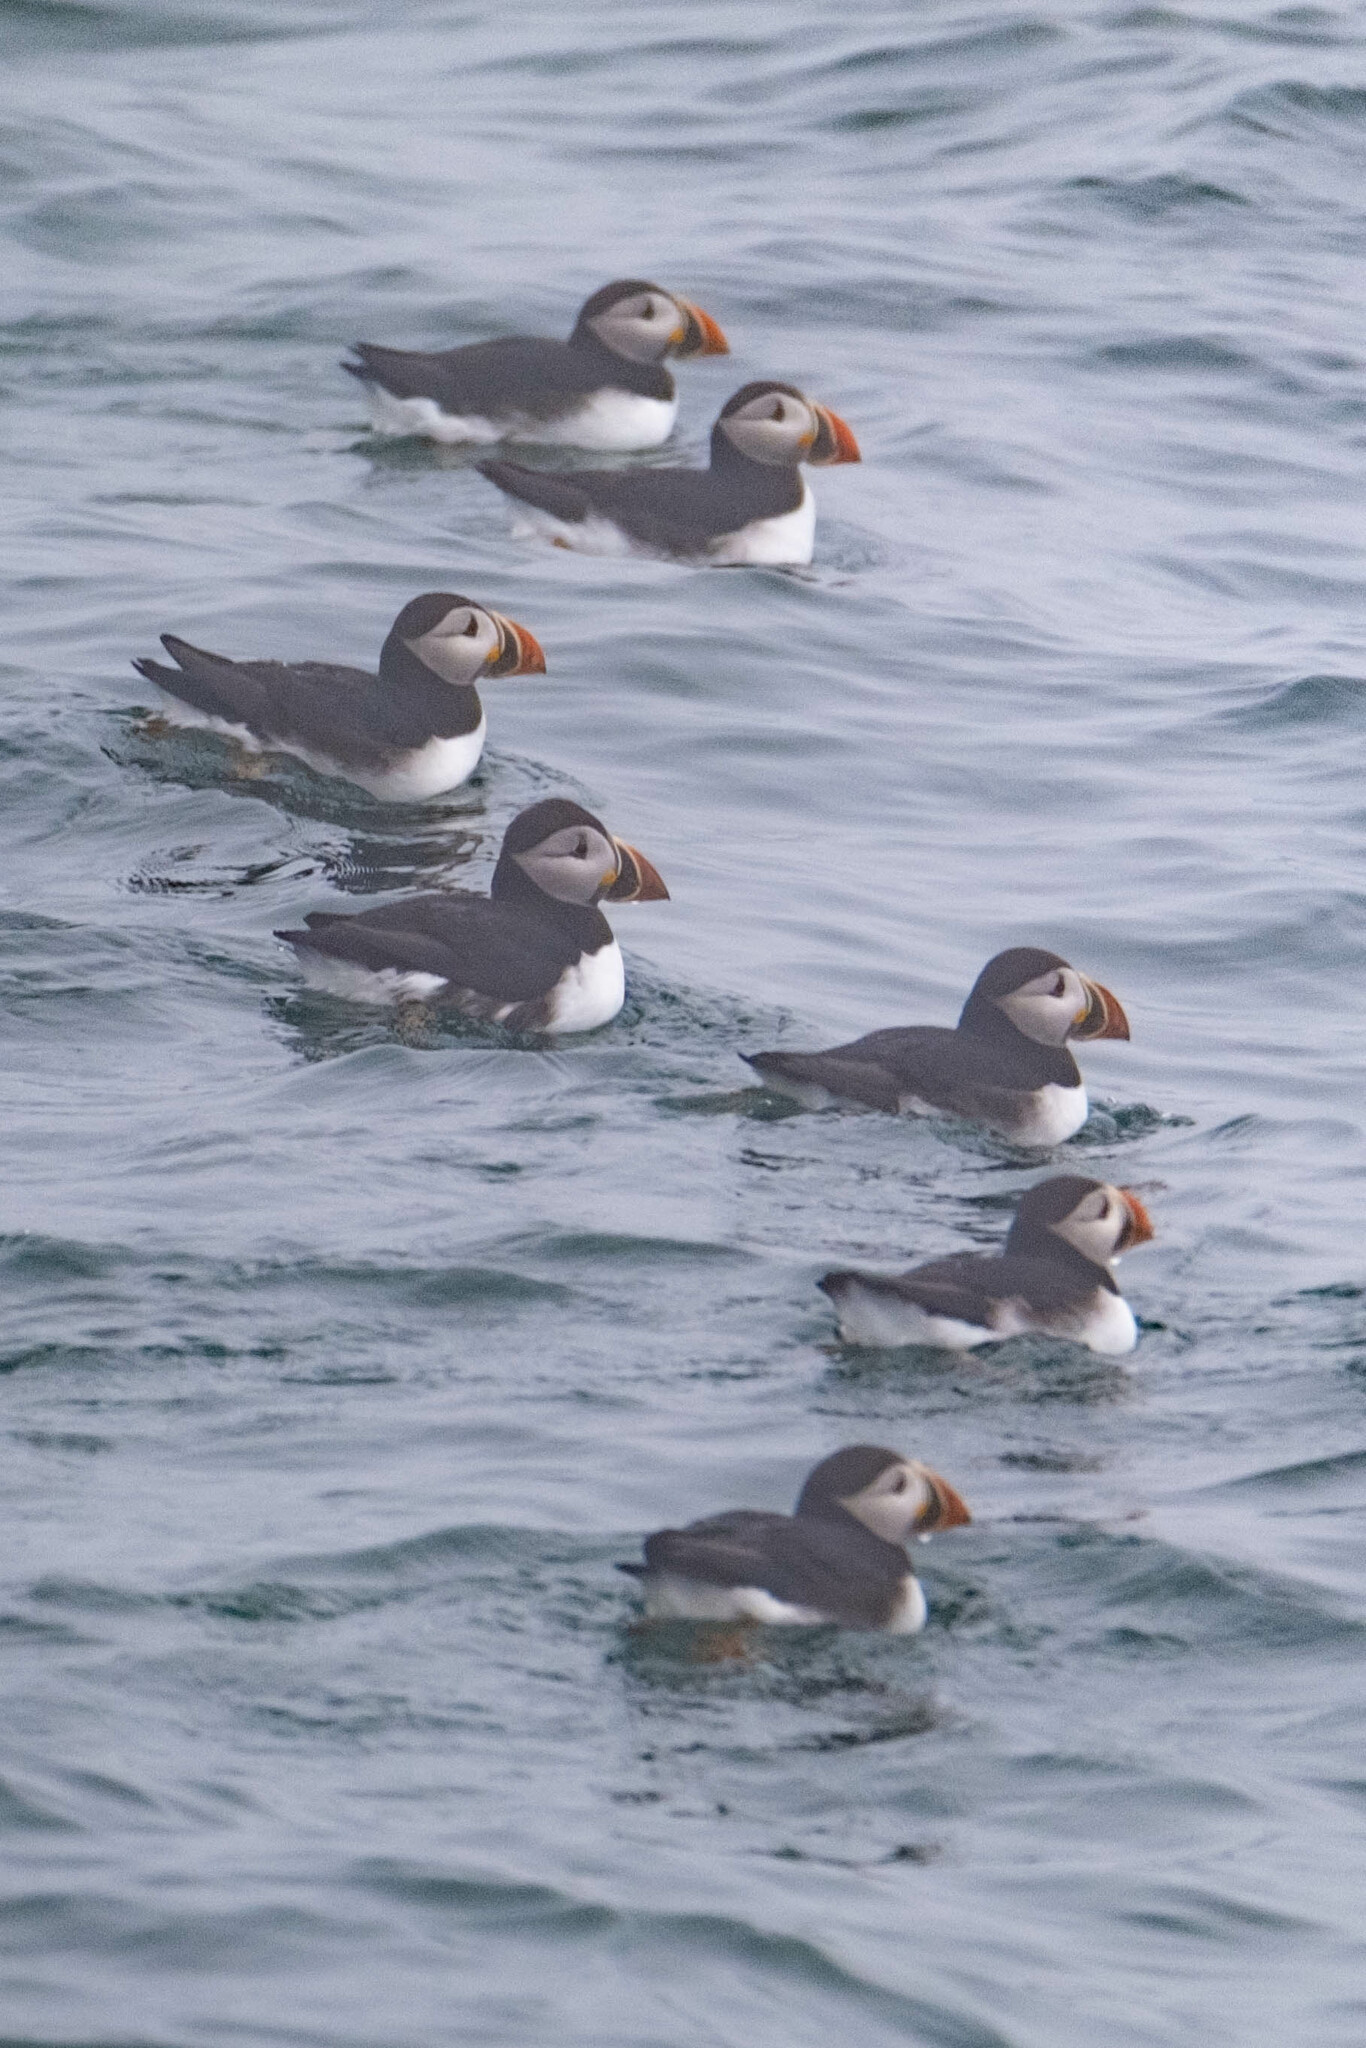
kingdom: Animalia
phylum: Chordata
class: Aves
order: Charadriiformes
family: Alcidae
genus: Fratercula
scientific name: Fratercula arctica
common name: Atlantic puffin
